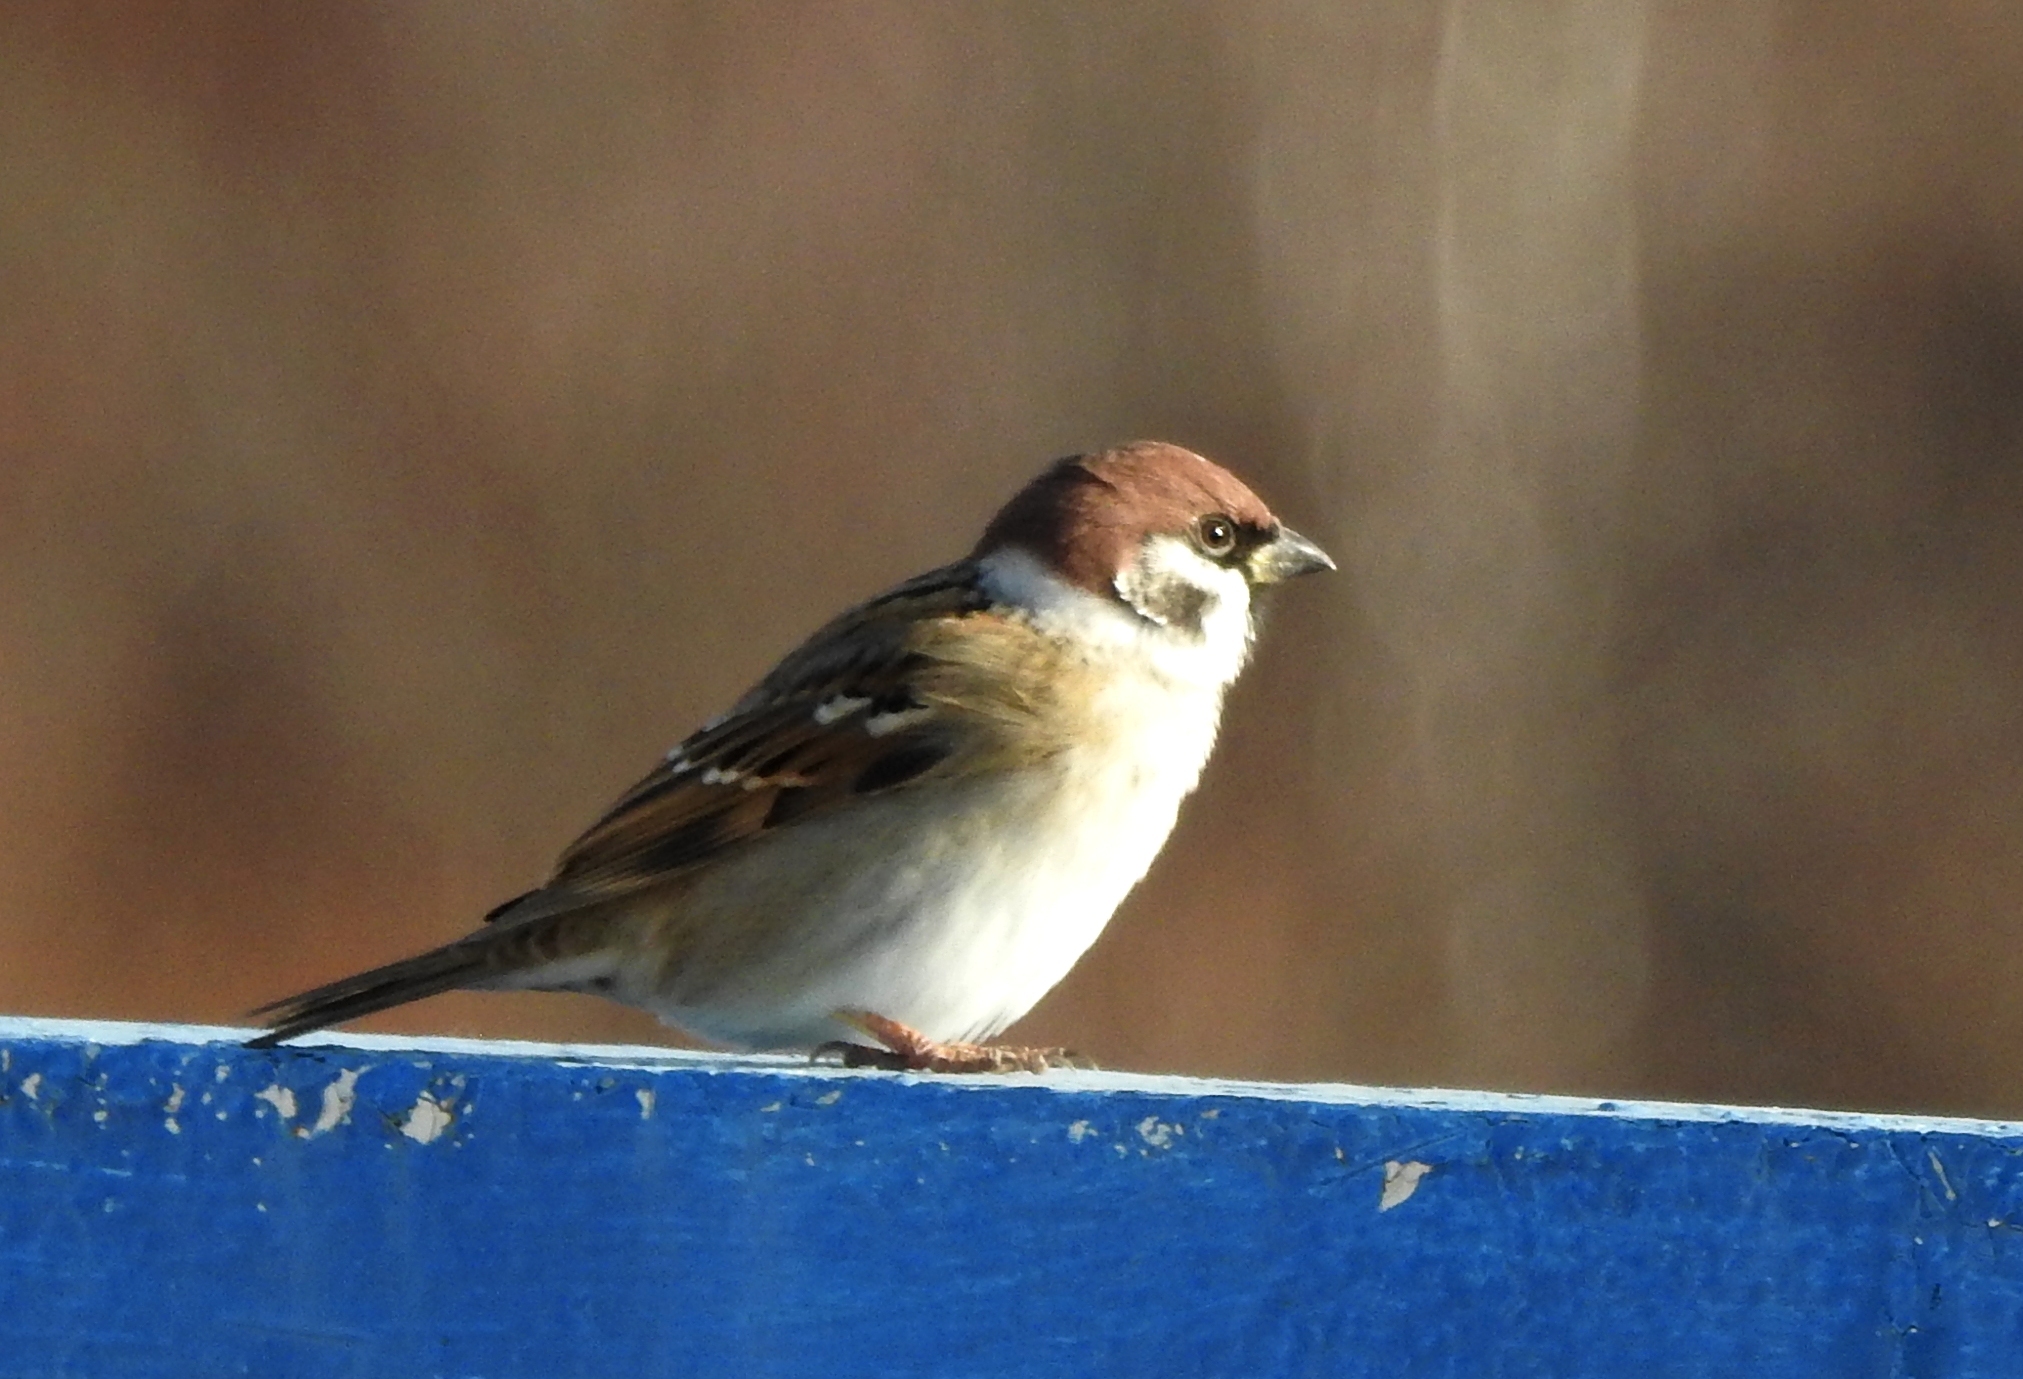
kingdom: Animalia
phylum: Chordata
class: Aves
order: Passeriformes
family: Passeridae
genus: Passer
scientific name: Passer montanus
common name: Eurasian tree sparrow
